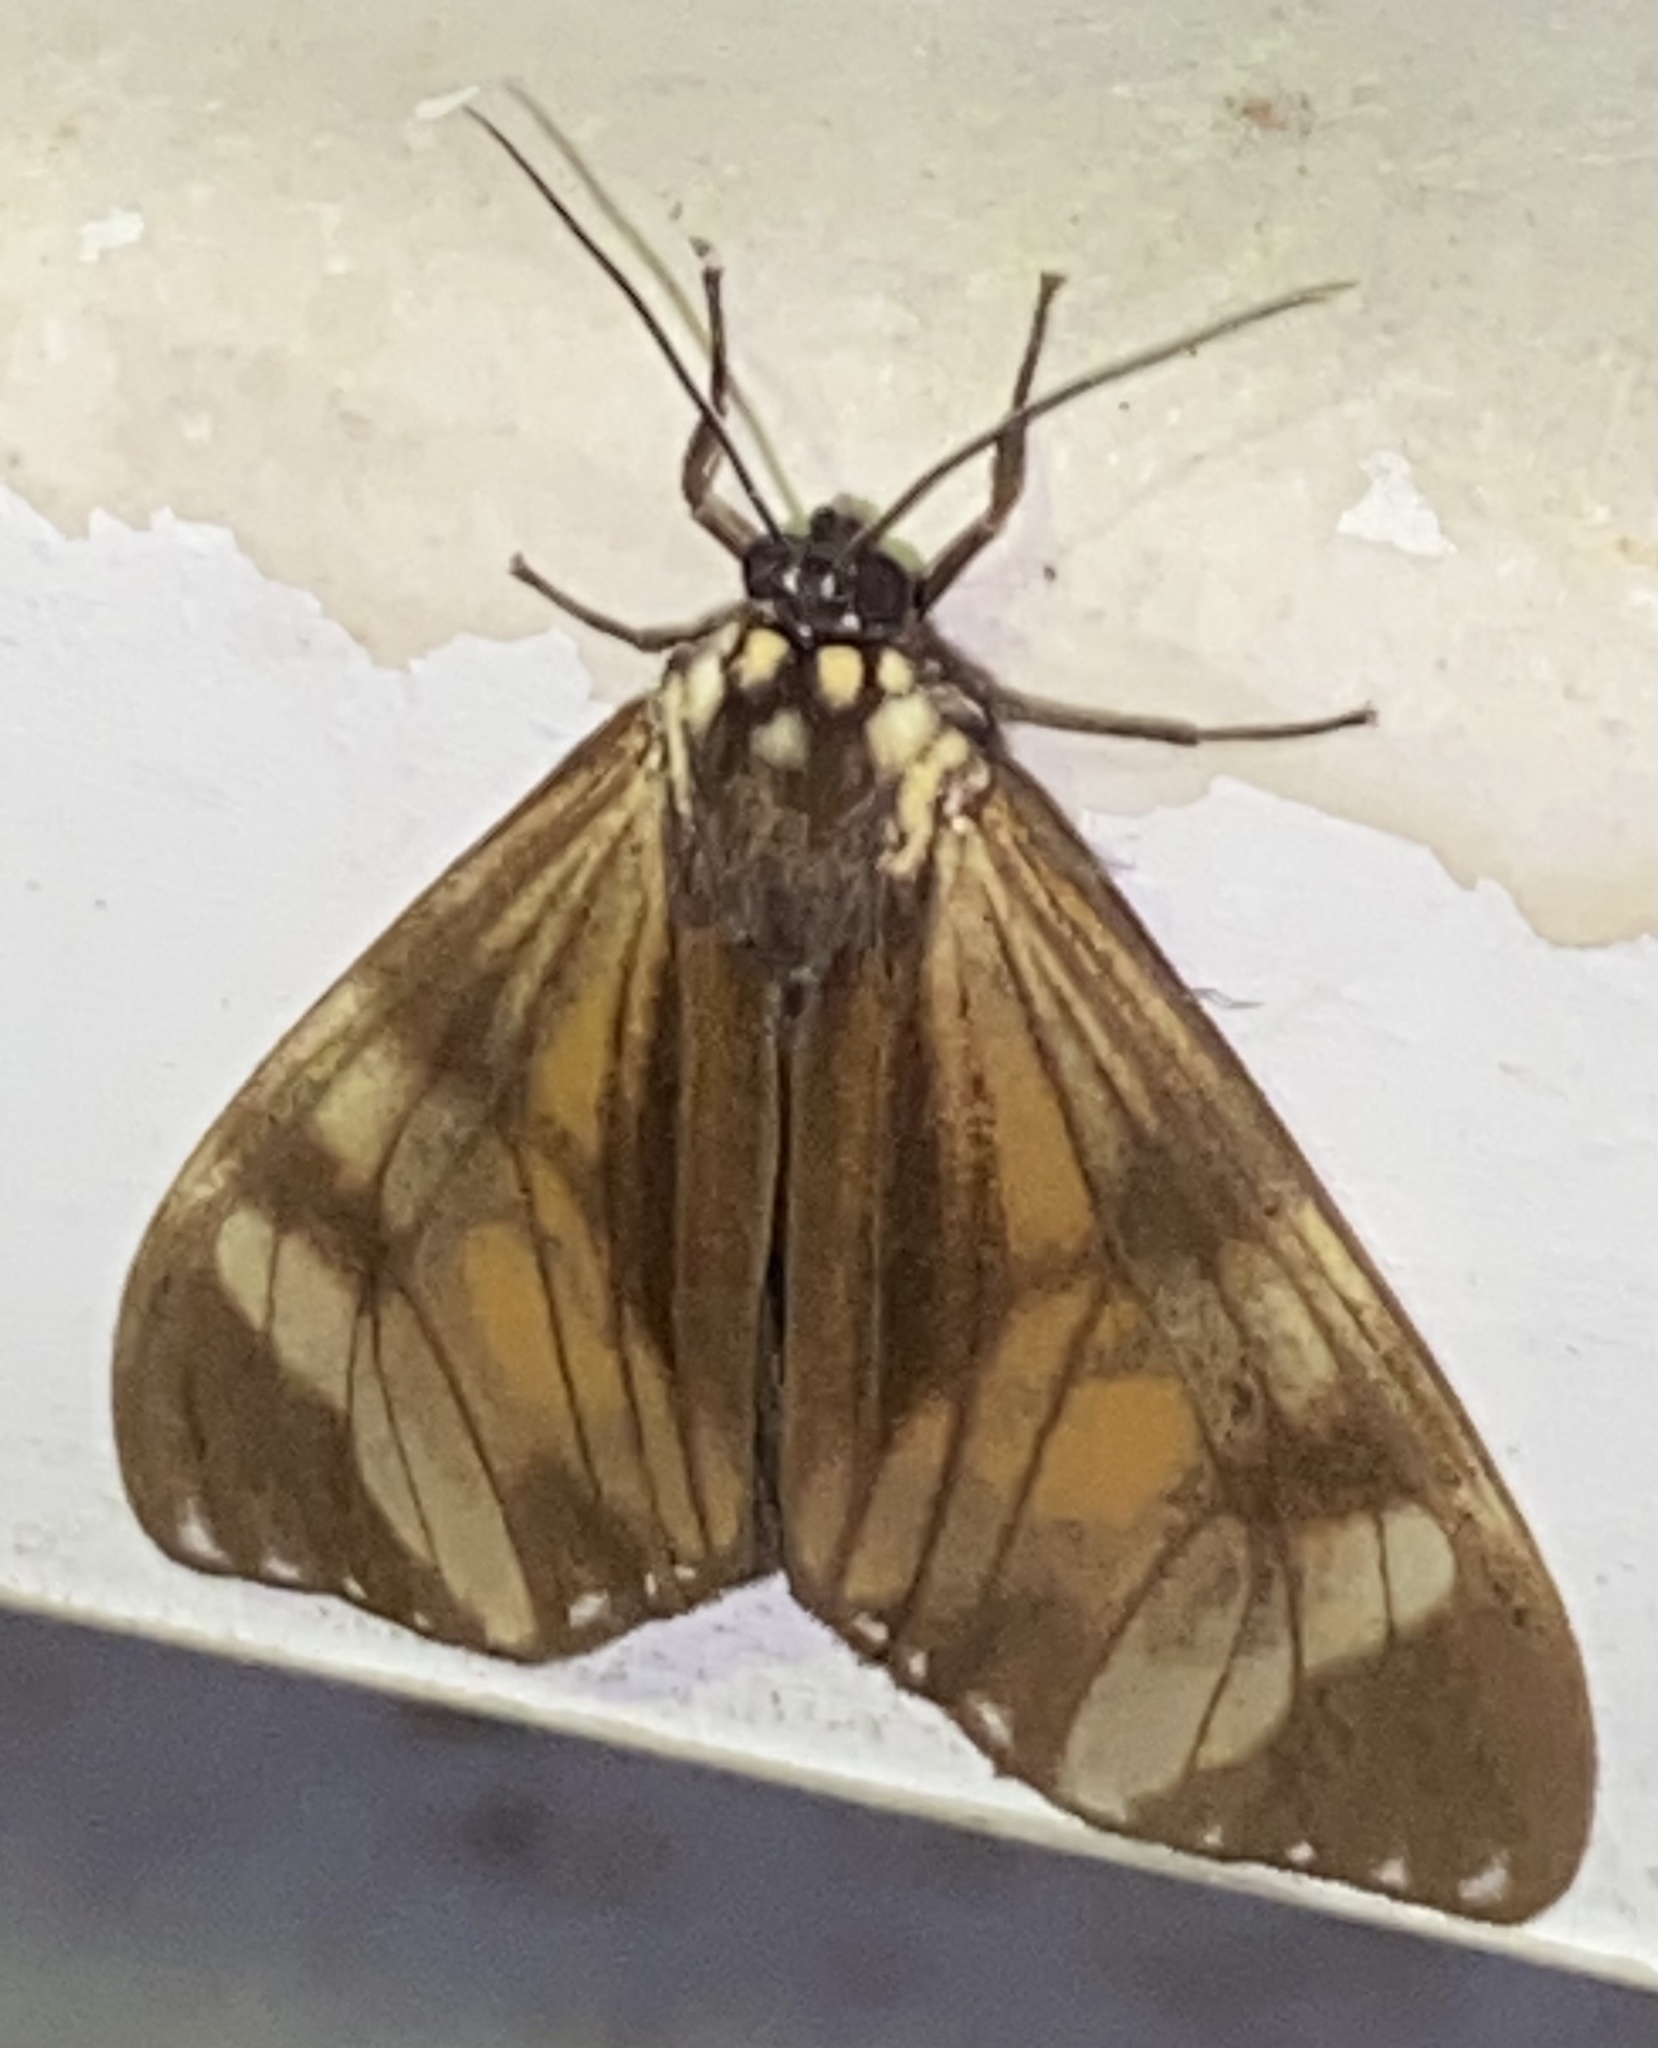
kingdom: Animalia
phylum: Arthropoda
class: Insecta
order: Lepidoptera
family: Erebidae
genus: Dysschema
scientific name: Dysschema eurocilia
